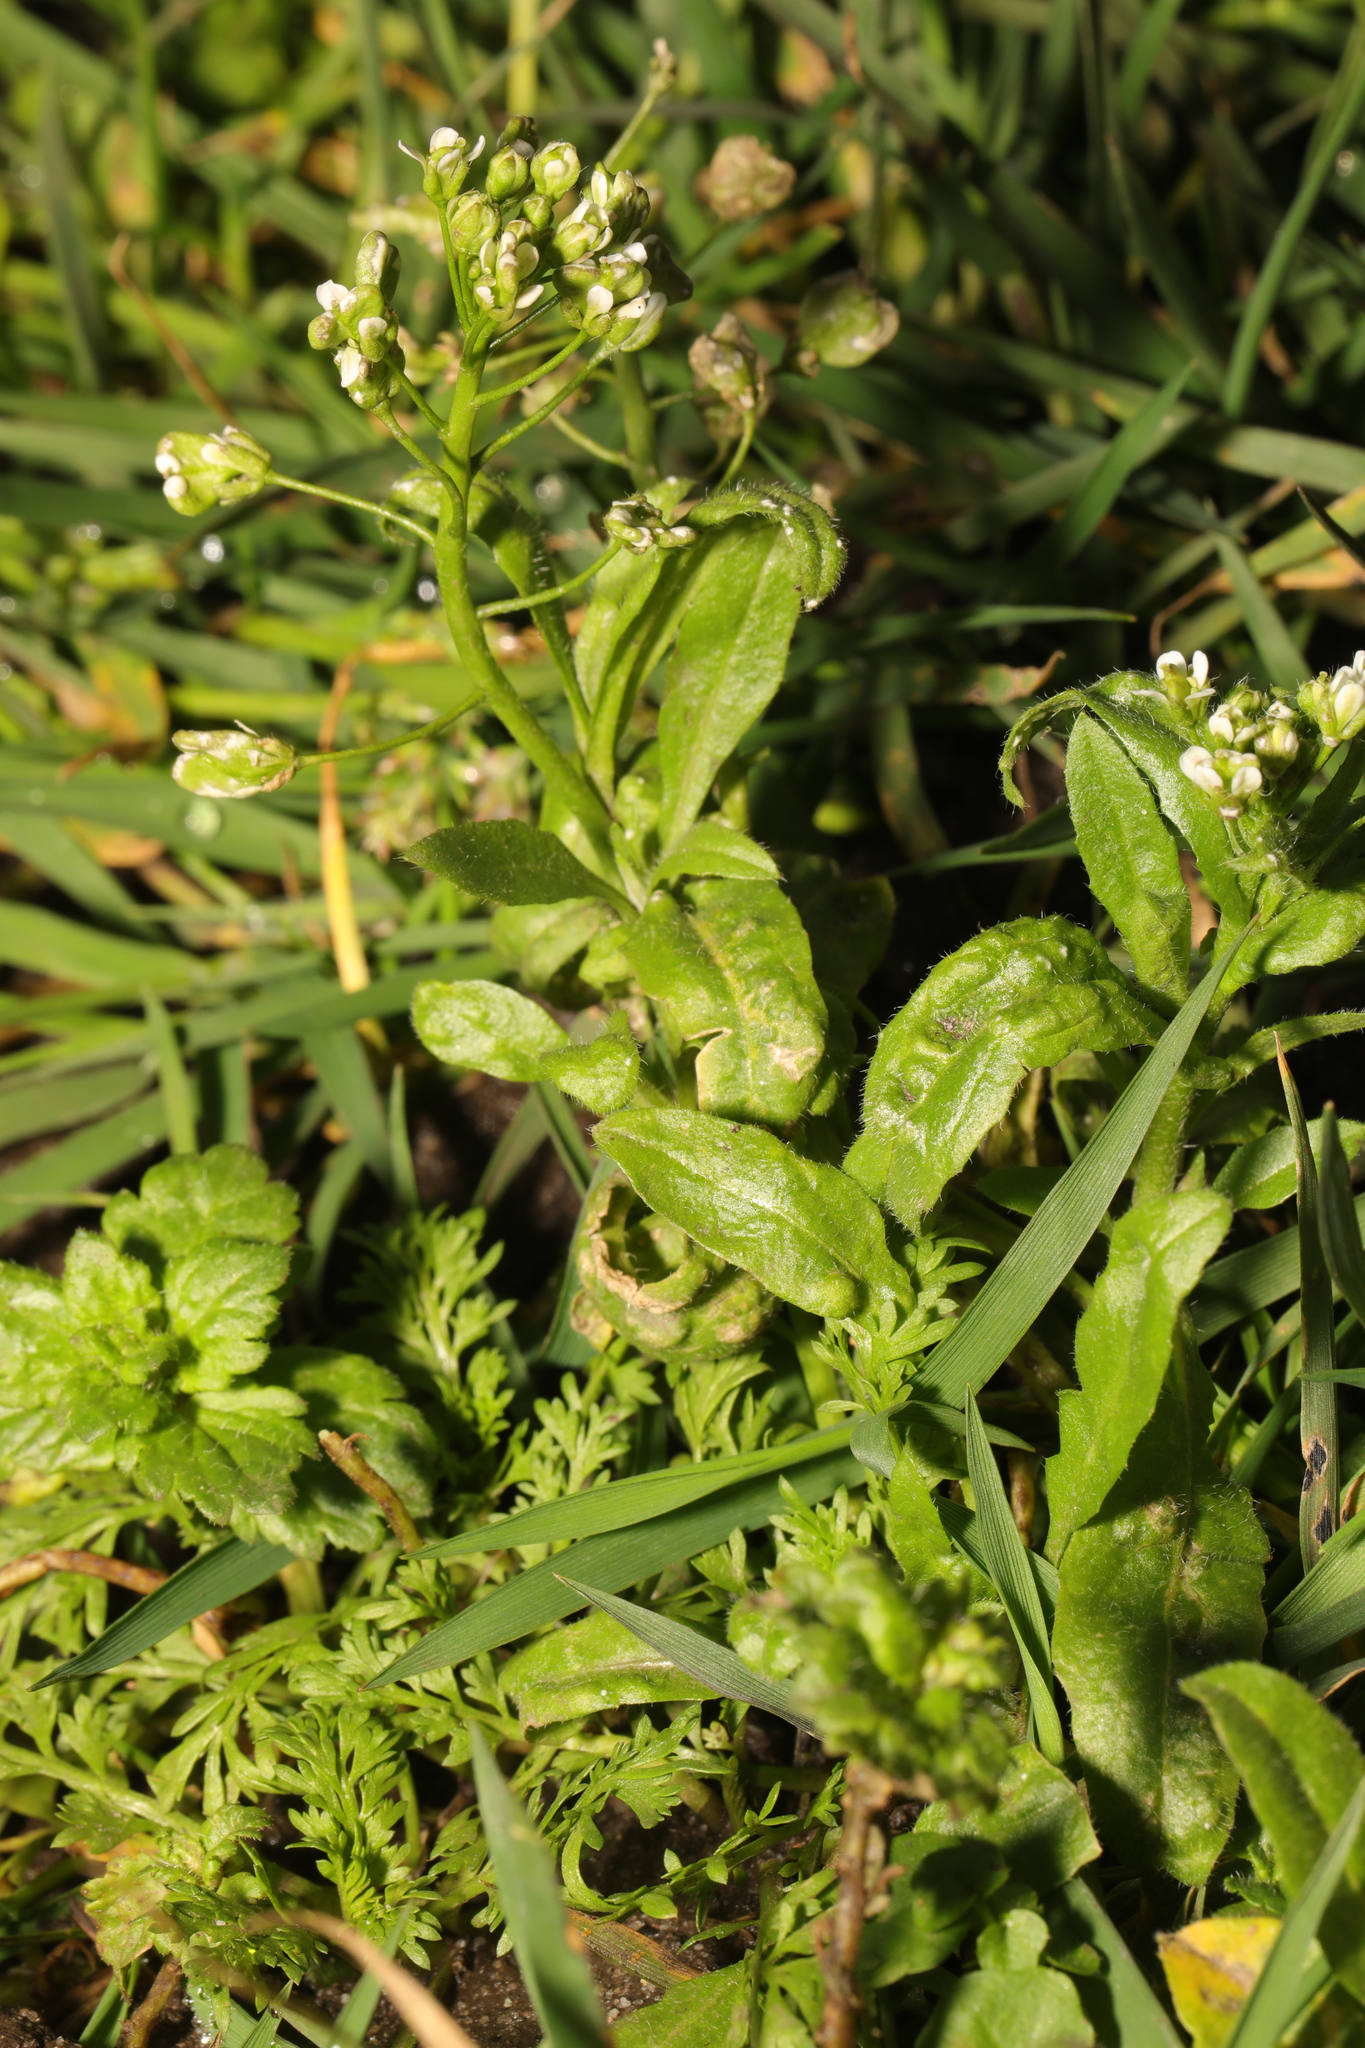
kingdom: Plantae
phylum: Tracheophyta
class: Magnoliopsida
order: Brassicales
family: Brassicaceae
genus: Capsella
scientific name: Capsella bursa-pastoris
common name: Shepherd's purse
